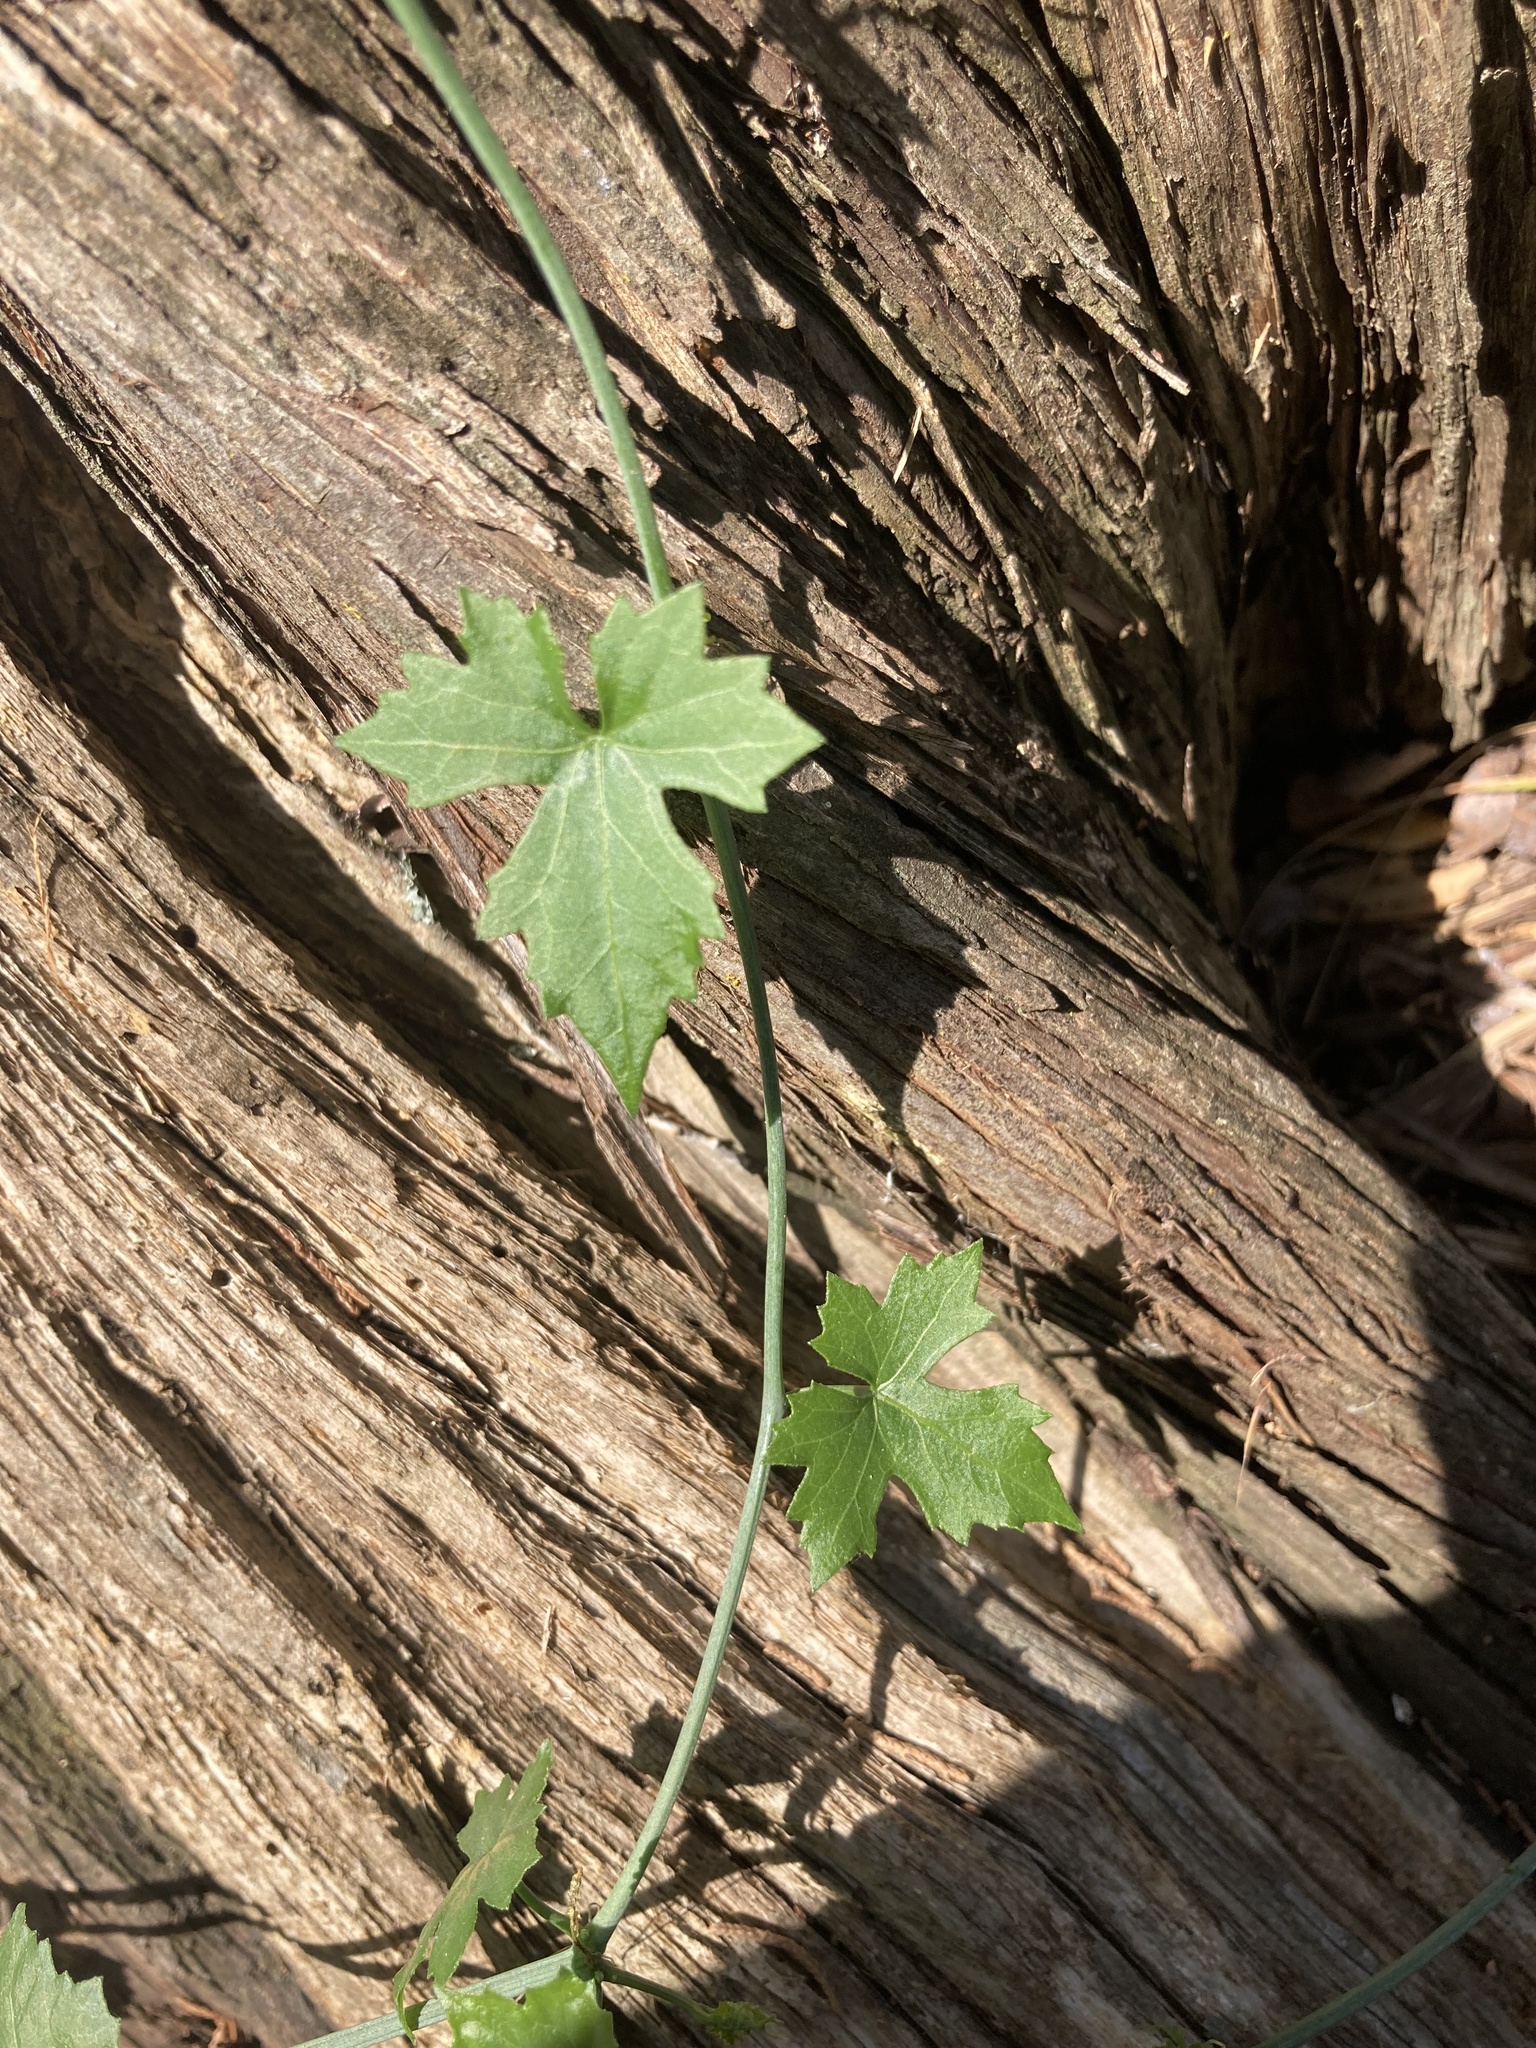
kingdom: Plantae
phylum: Tracheophyta
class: Magnoliopsida
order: Cucurbitales
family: Cucurbitaceae
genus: Ibervillea
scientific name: Ibervillea lindheimeri
